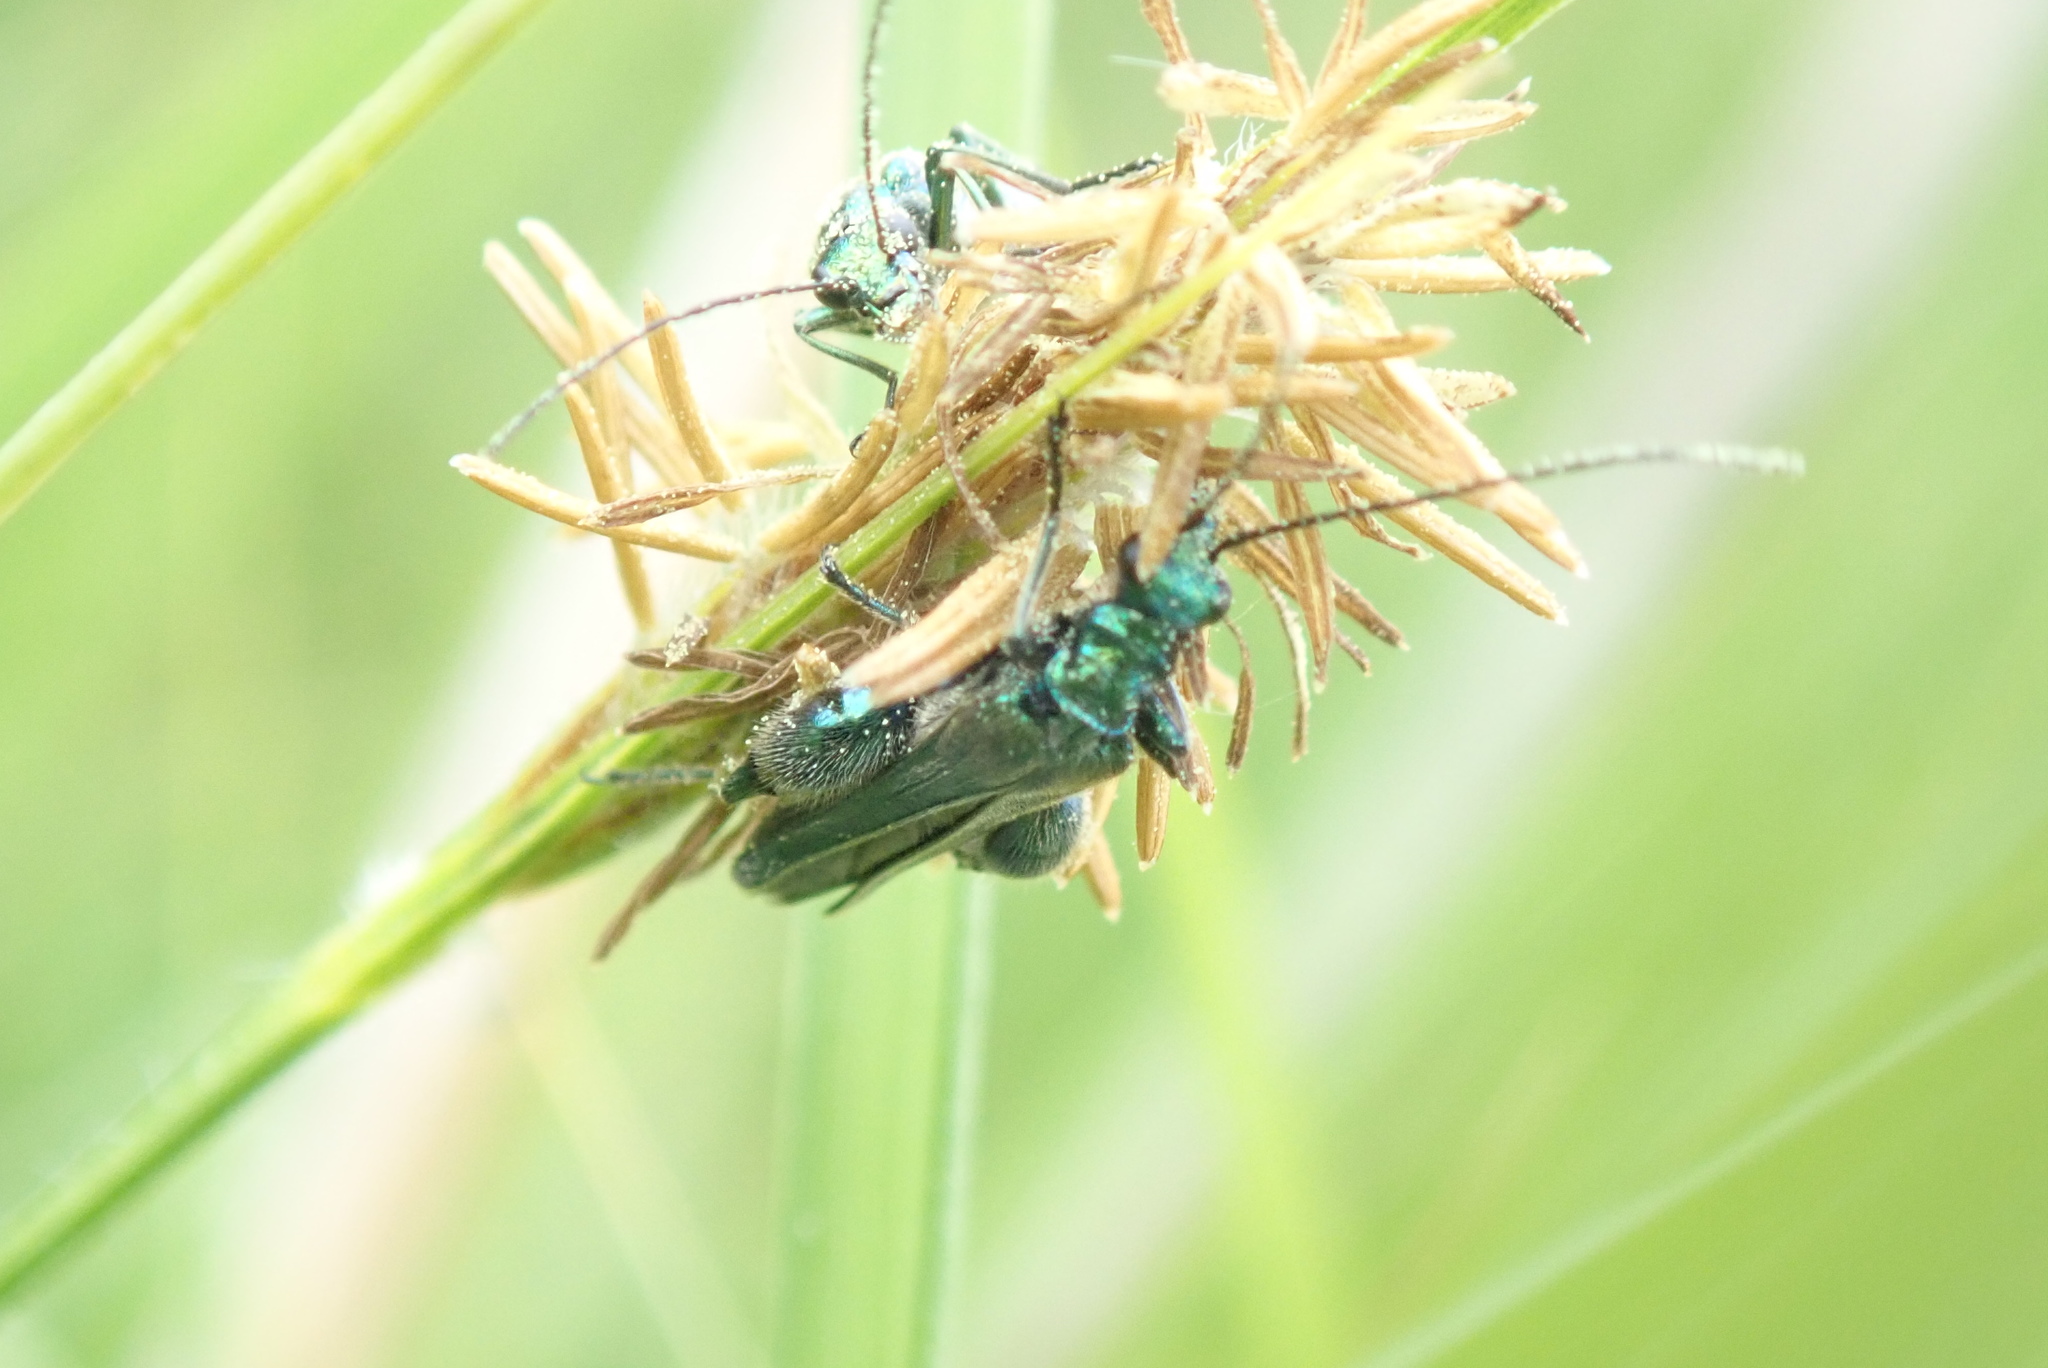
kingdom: Animalia
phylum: Arthropoda
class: Insecta
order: Coleoptera
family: Oedemeridae
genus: Oedemera
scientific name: Oedemera nobilis
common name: Swollen-thighed beetle
